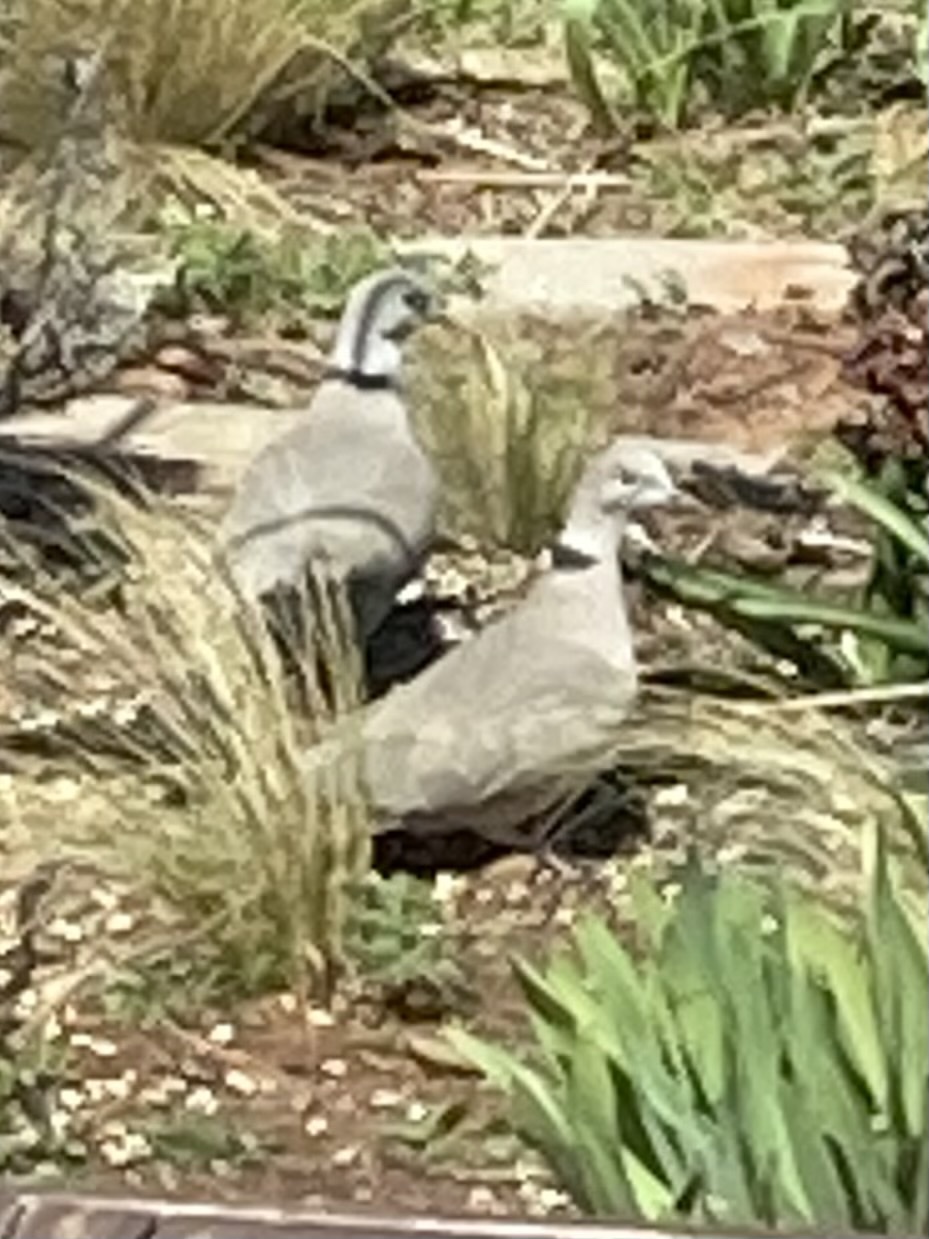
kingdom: Animalia
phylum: Chordata
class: Aves
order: Columbiformes
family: Columbidae
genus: Streptopelia
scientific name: Streptopelia decaocto
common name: Eurasian collared dove
